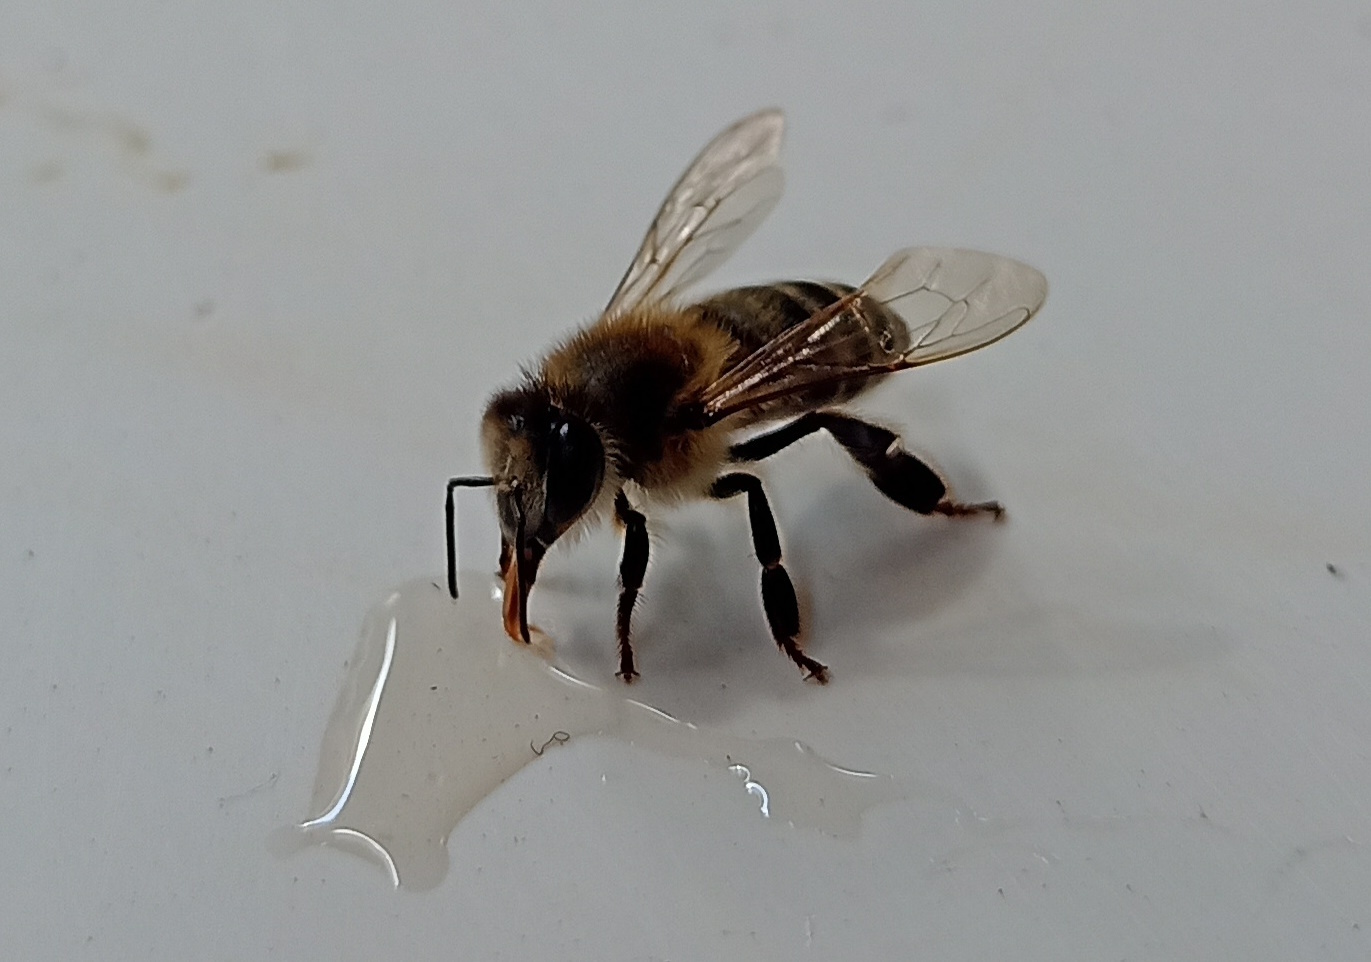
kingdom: Animalia
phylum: Arthropoda
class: Insecta
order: Hymenoptera
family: Apidae
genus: Apis
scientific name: Apis mellifera
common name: Honey bee
